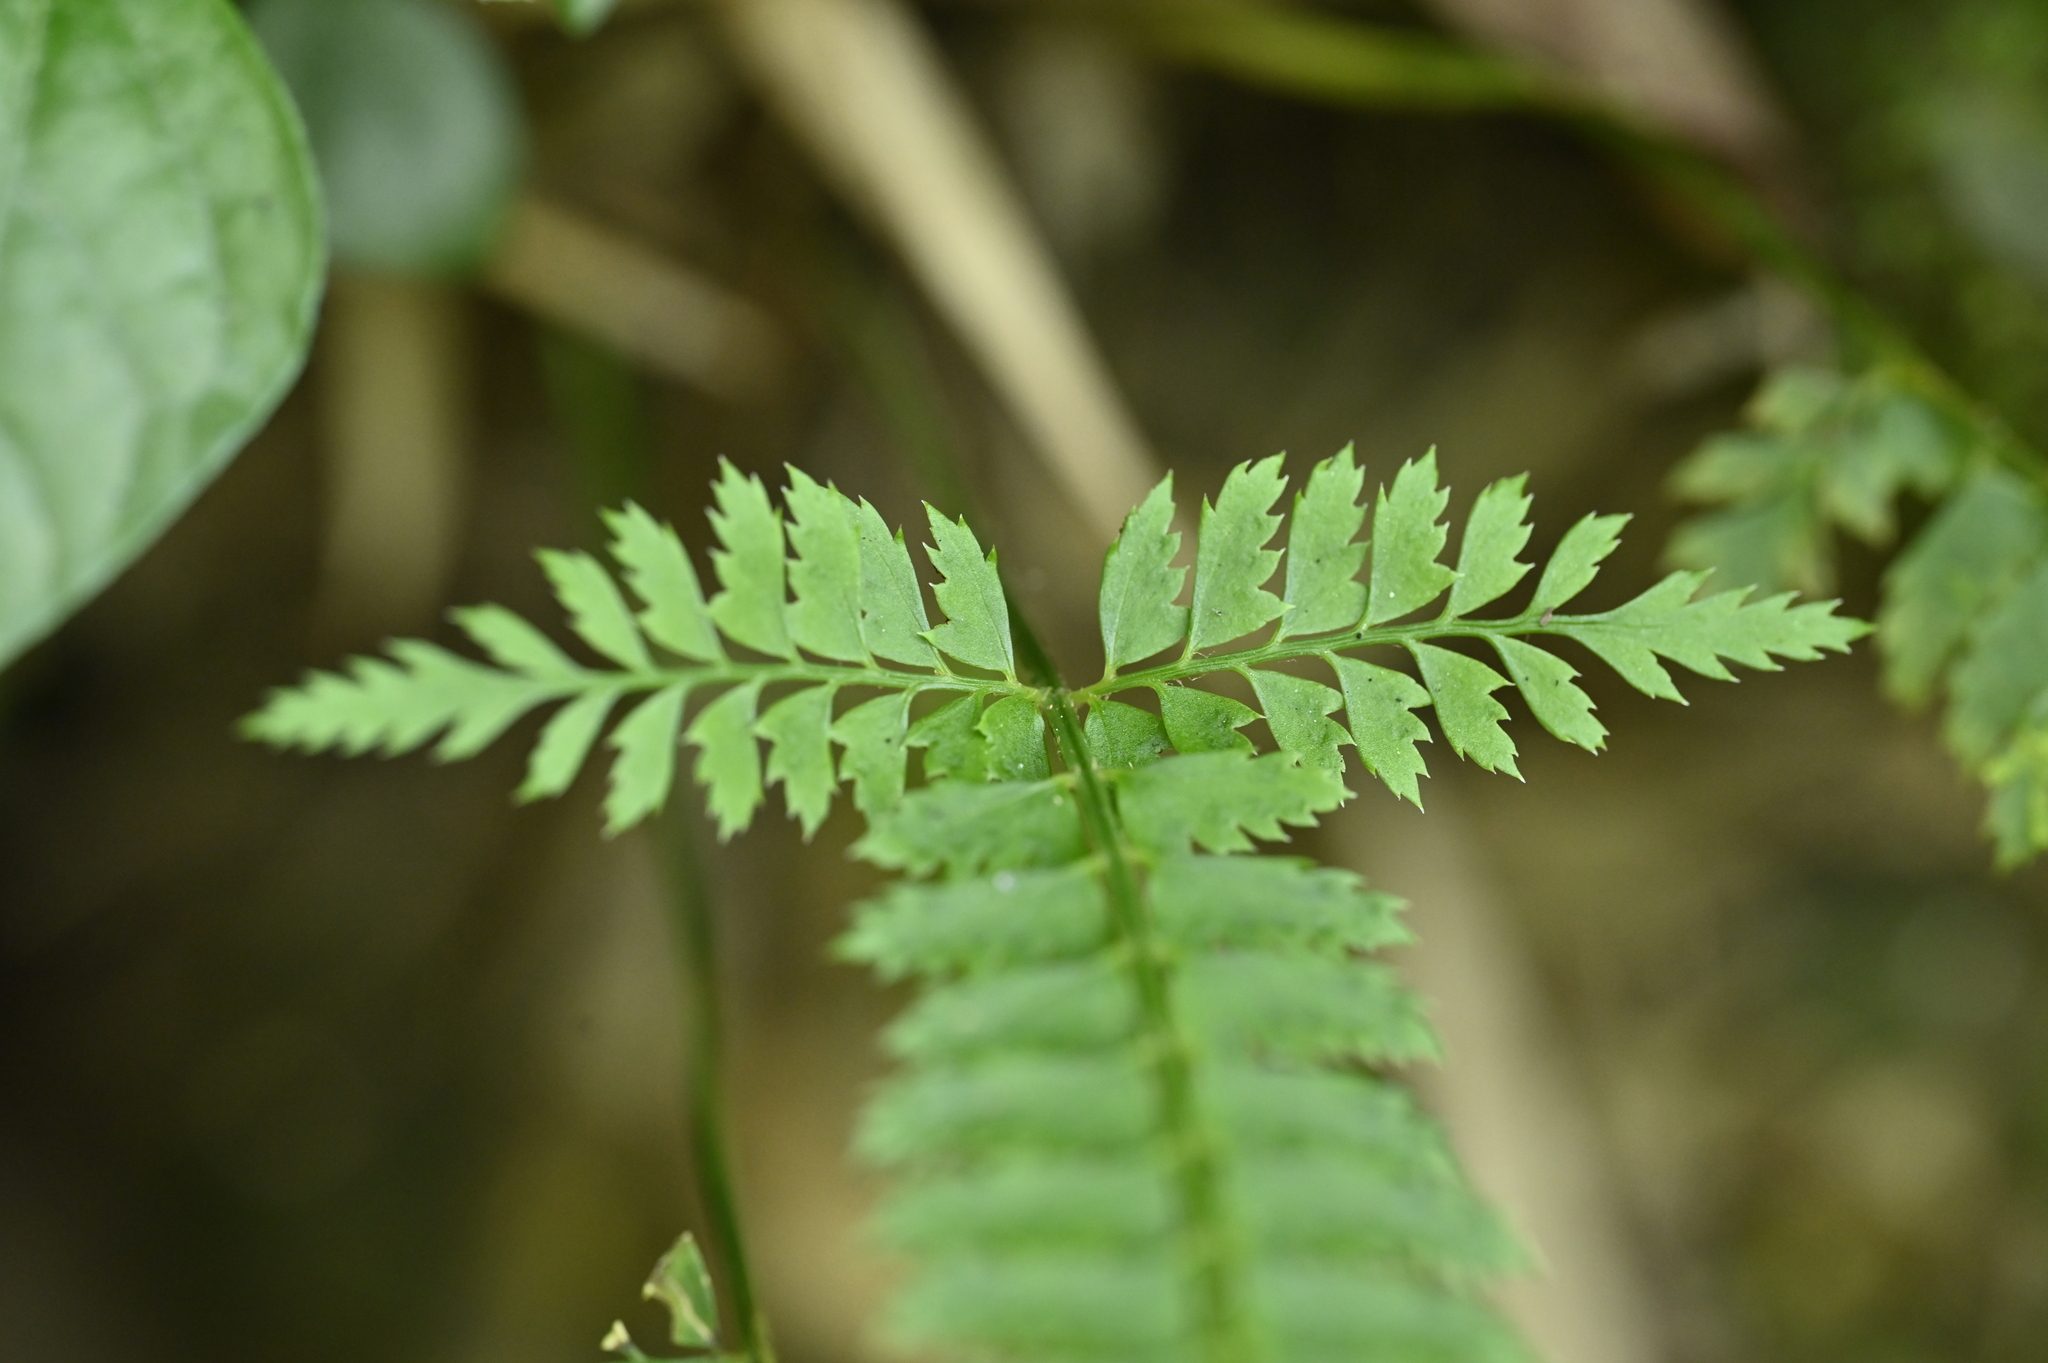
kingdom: Plantae
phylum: Tracheophyta
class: Polypodiopsida
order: Polypodiales
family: Dryopteridaceae
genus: Polystichum
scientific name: Polystichum hancockii
